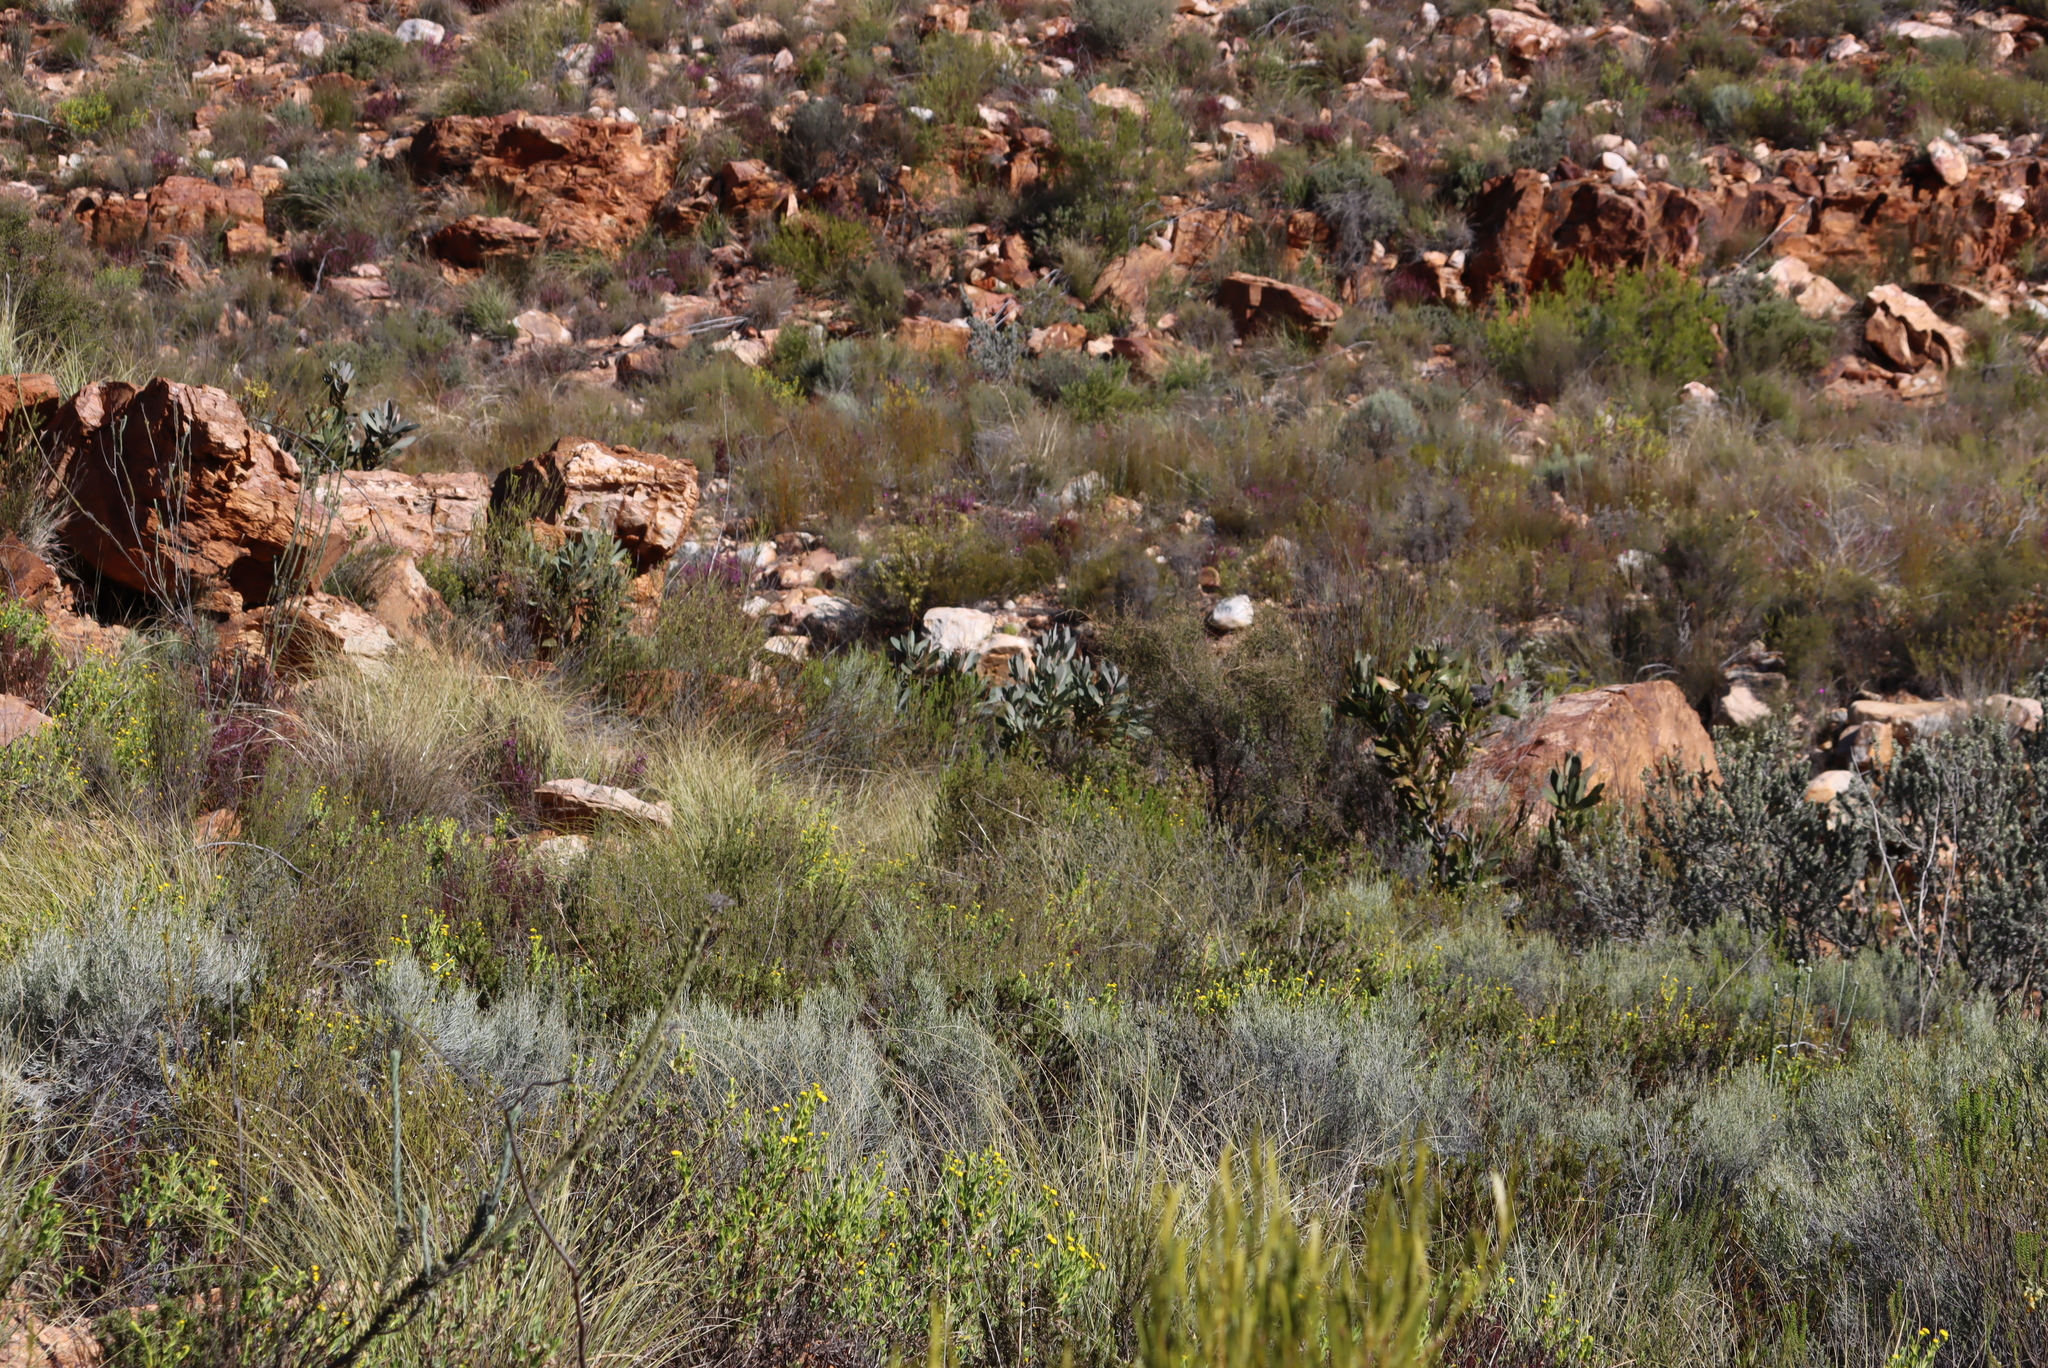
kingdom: Plantae
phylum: Tracheophyta
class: Magnoliopsida
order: Proteales
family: Proteaceae
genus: Protea
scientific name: Protea lorifolia
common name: Strap-leaved protea
